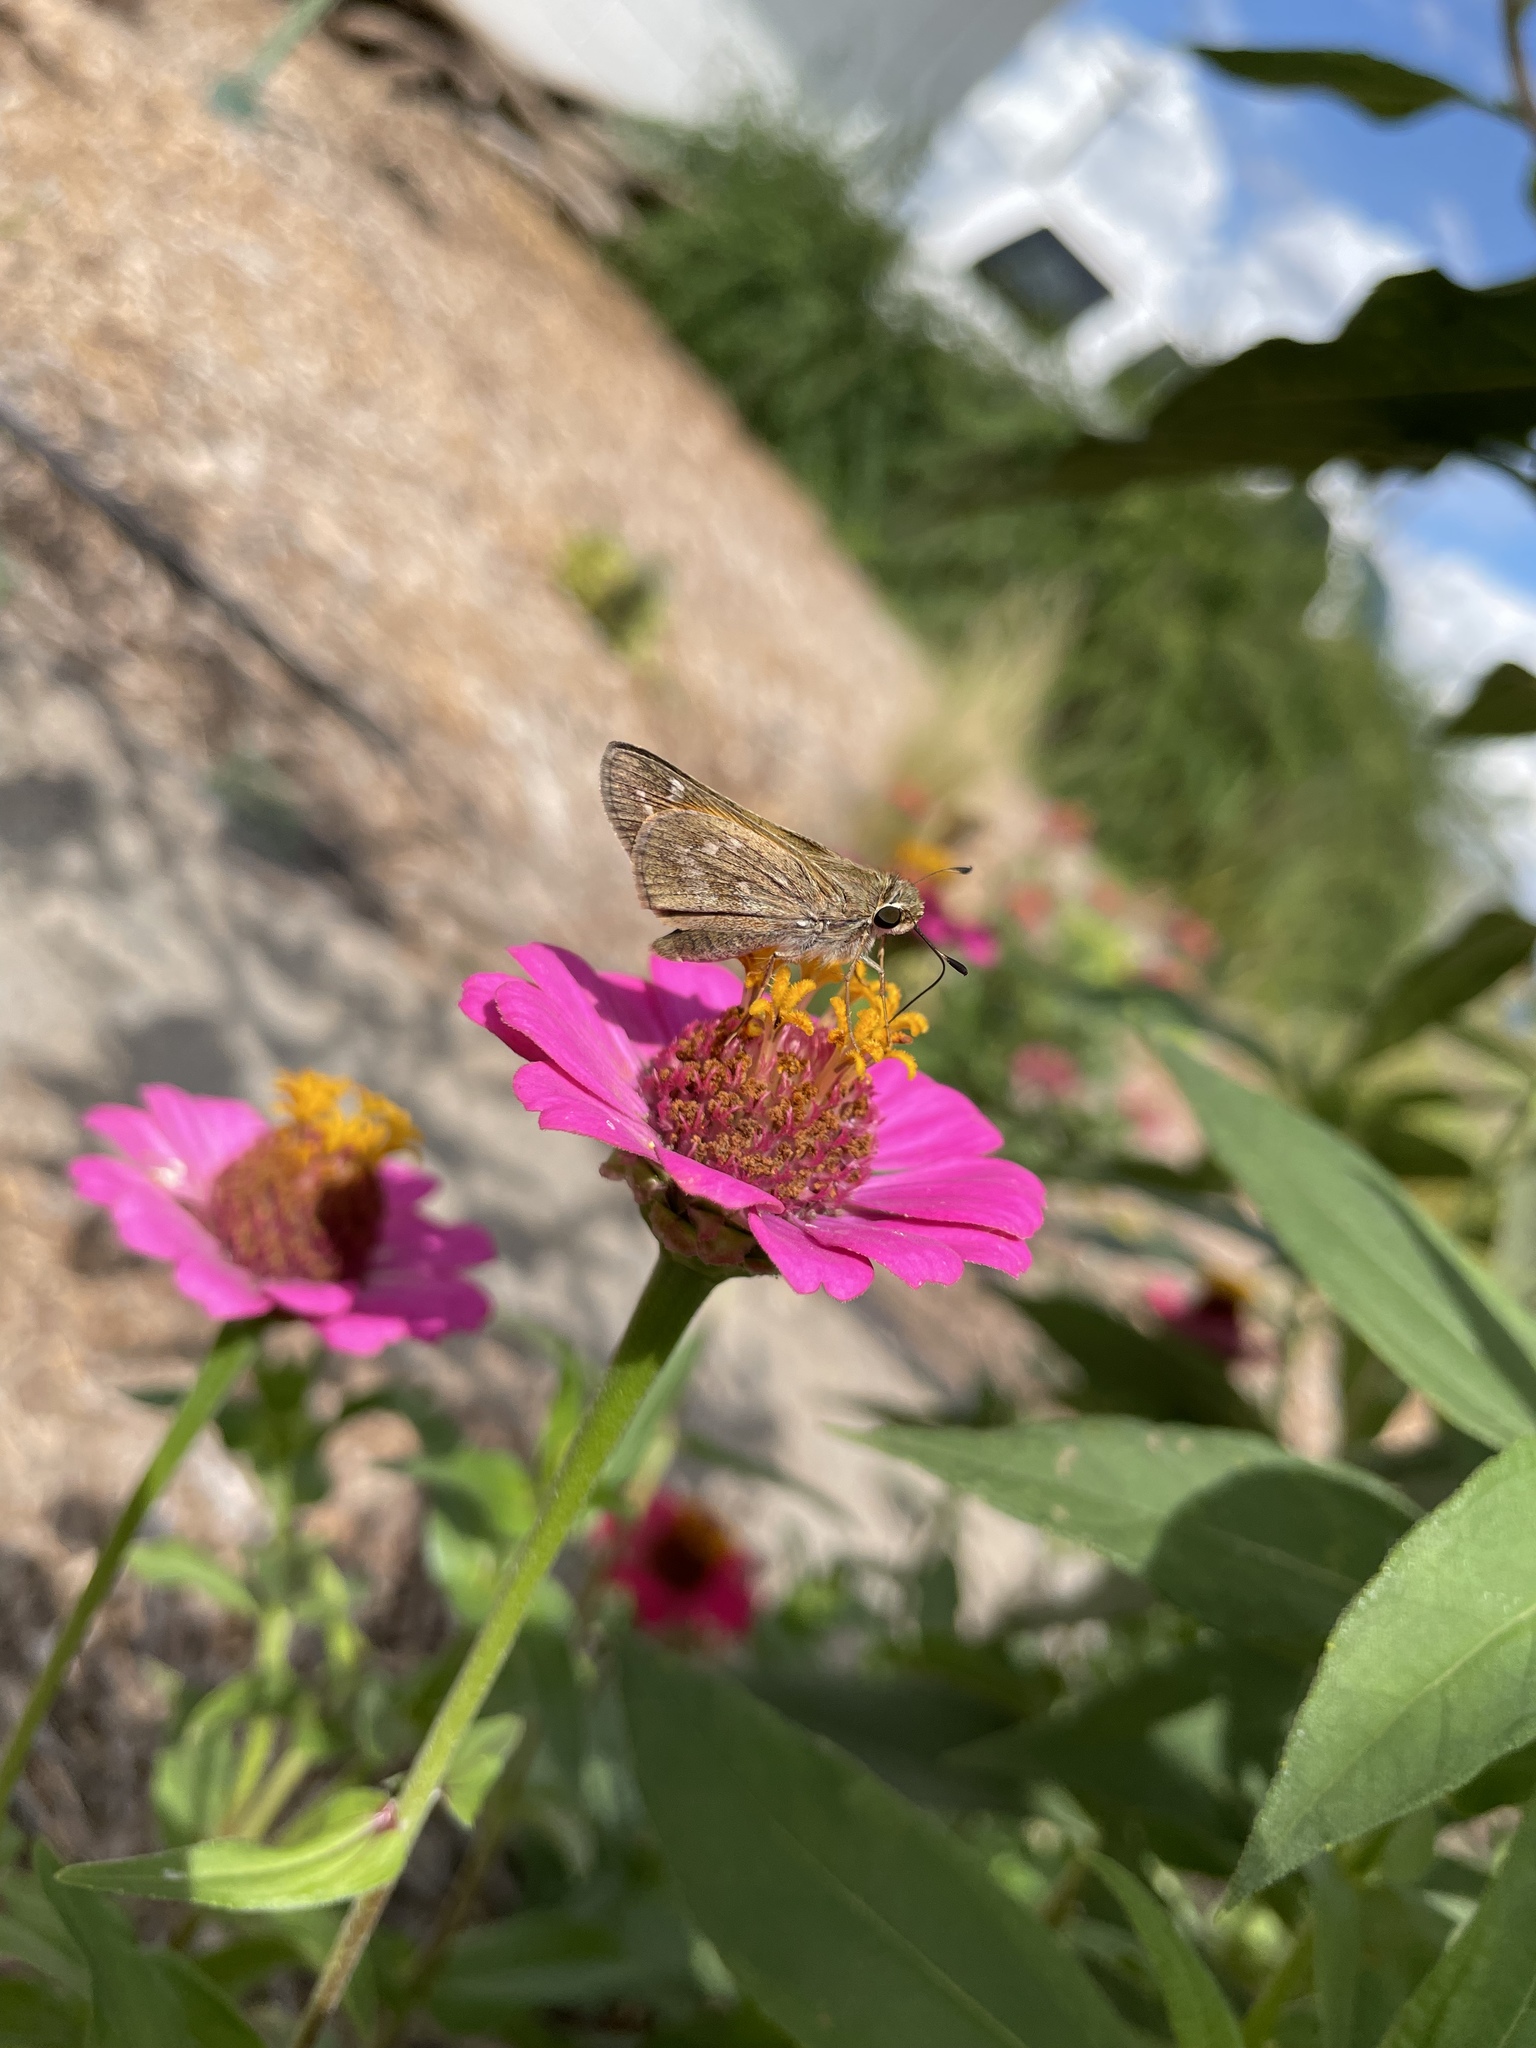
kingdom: Animalia
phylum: Arthropoda
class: Insecta
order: Lepidoptera
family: Hesperiidae
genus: Atalopedes
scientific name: Atalopedes
